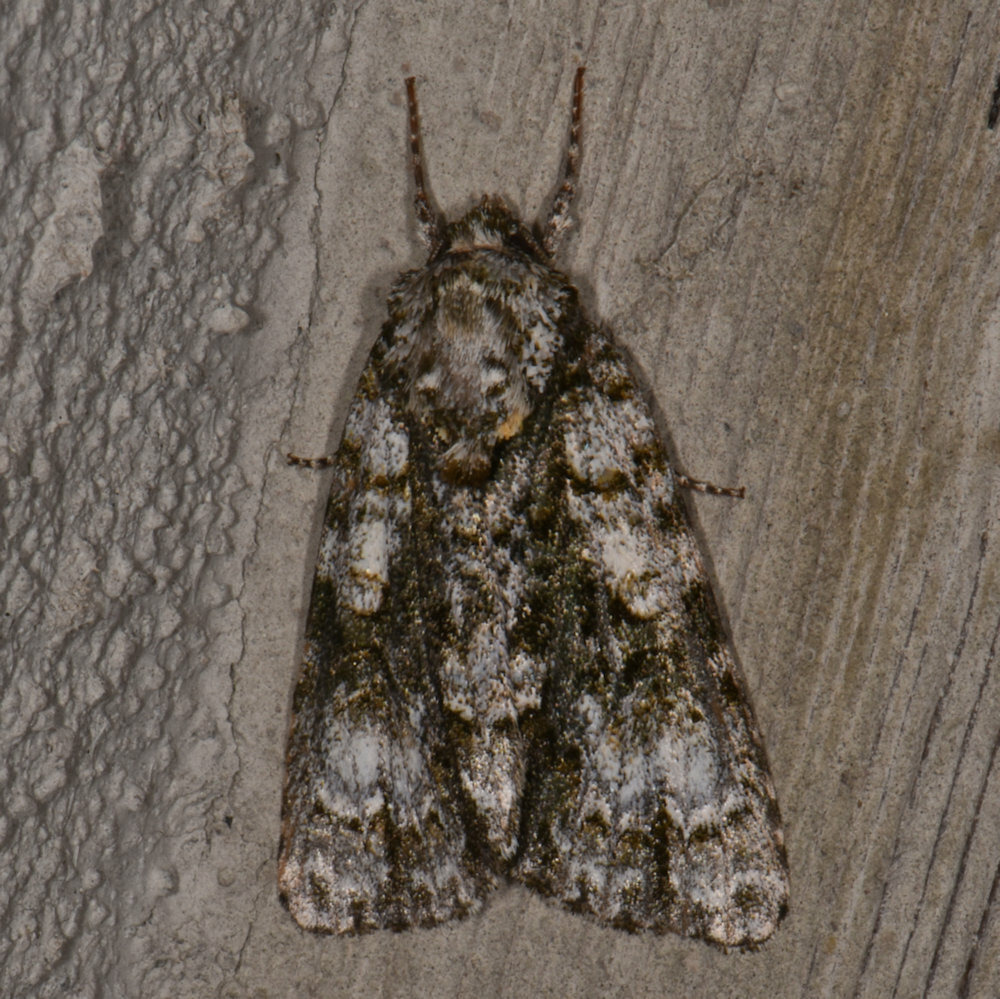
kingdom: Animalia
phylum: Arthropoda
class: Insecta
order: Lepidoptera
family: Noctuidae
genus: Acronicta
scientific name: Acronicta superans
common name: Splendid dagger
